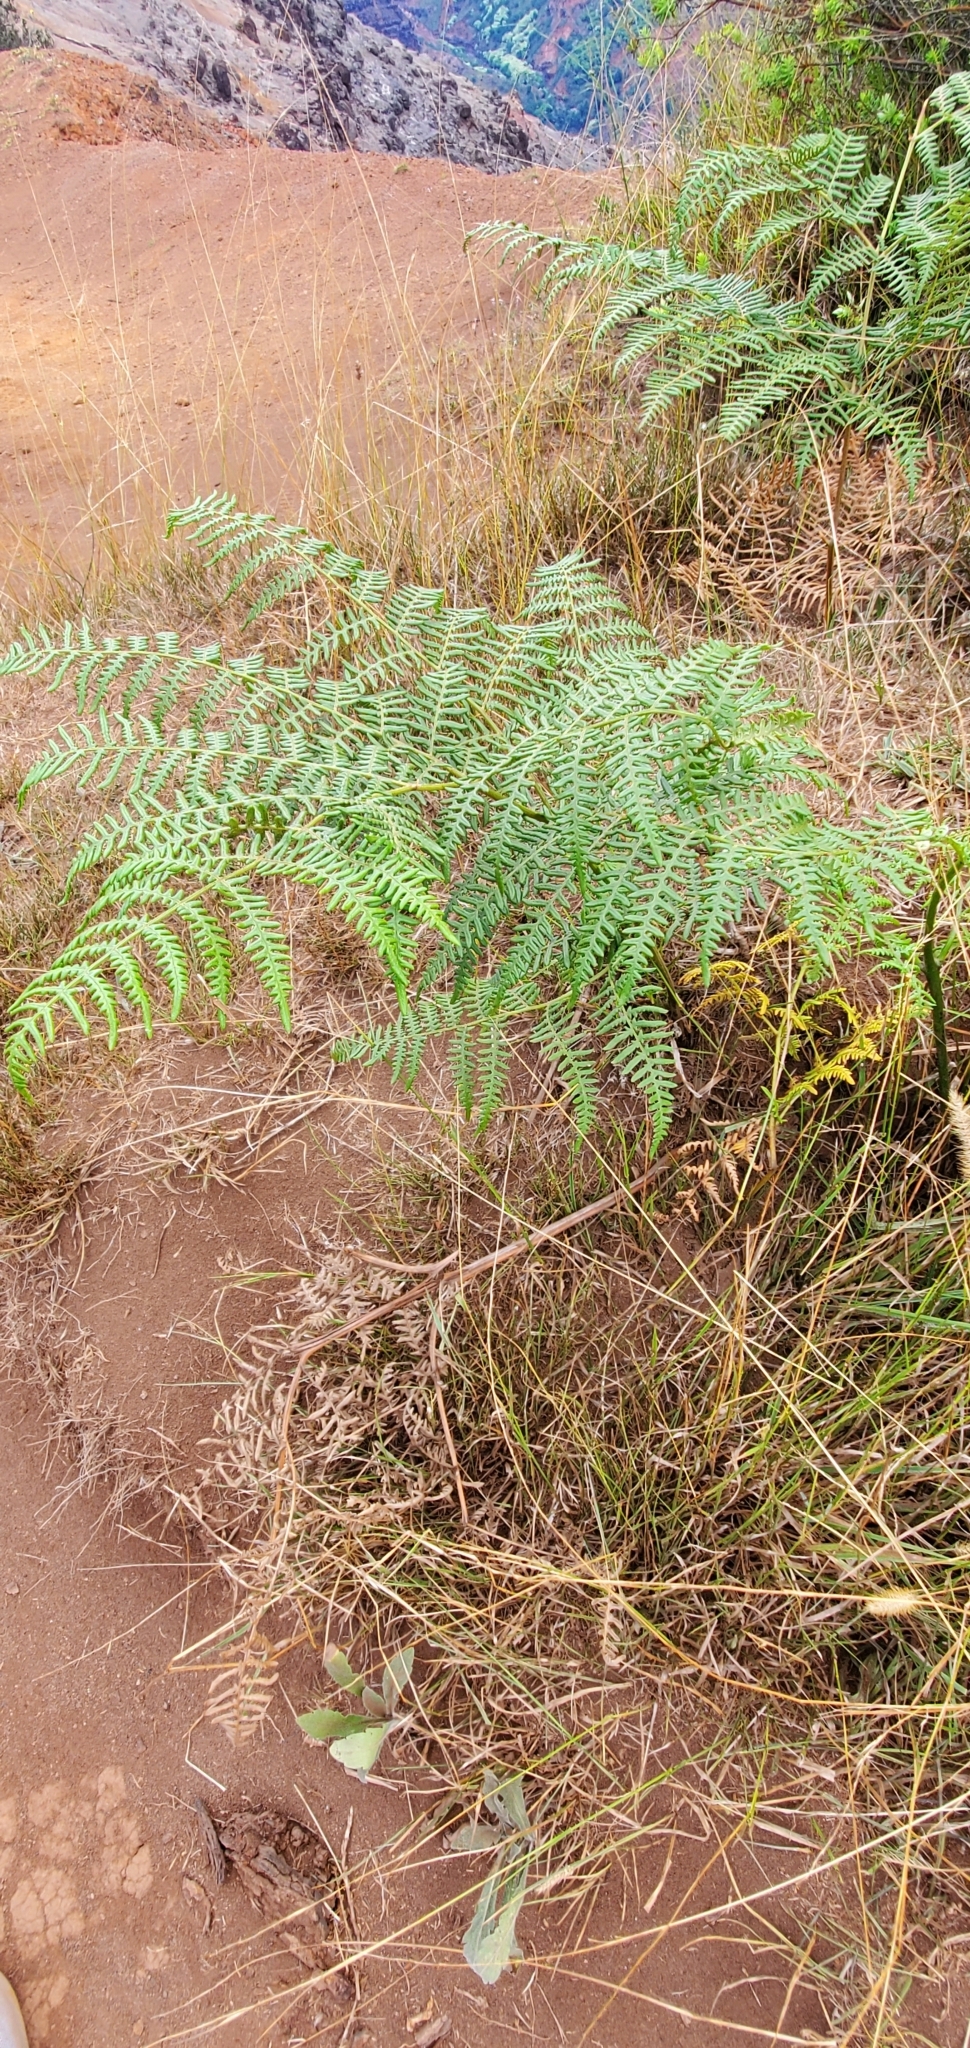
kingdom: Plantae
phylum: Tracheophyta
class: Polypodiopsida
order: Polypodiales
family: Dennstaedtiaceae
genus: Pteridium
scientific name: Pteridium aquilinum
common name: Bracken
